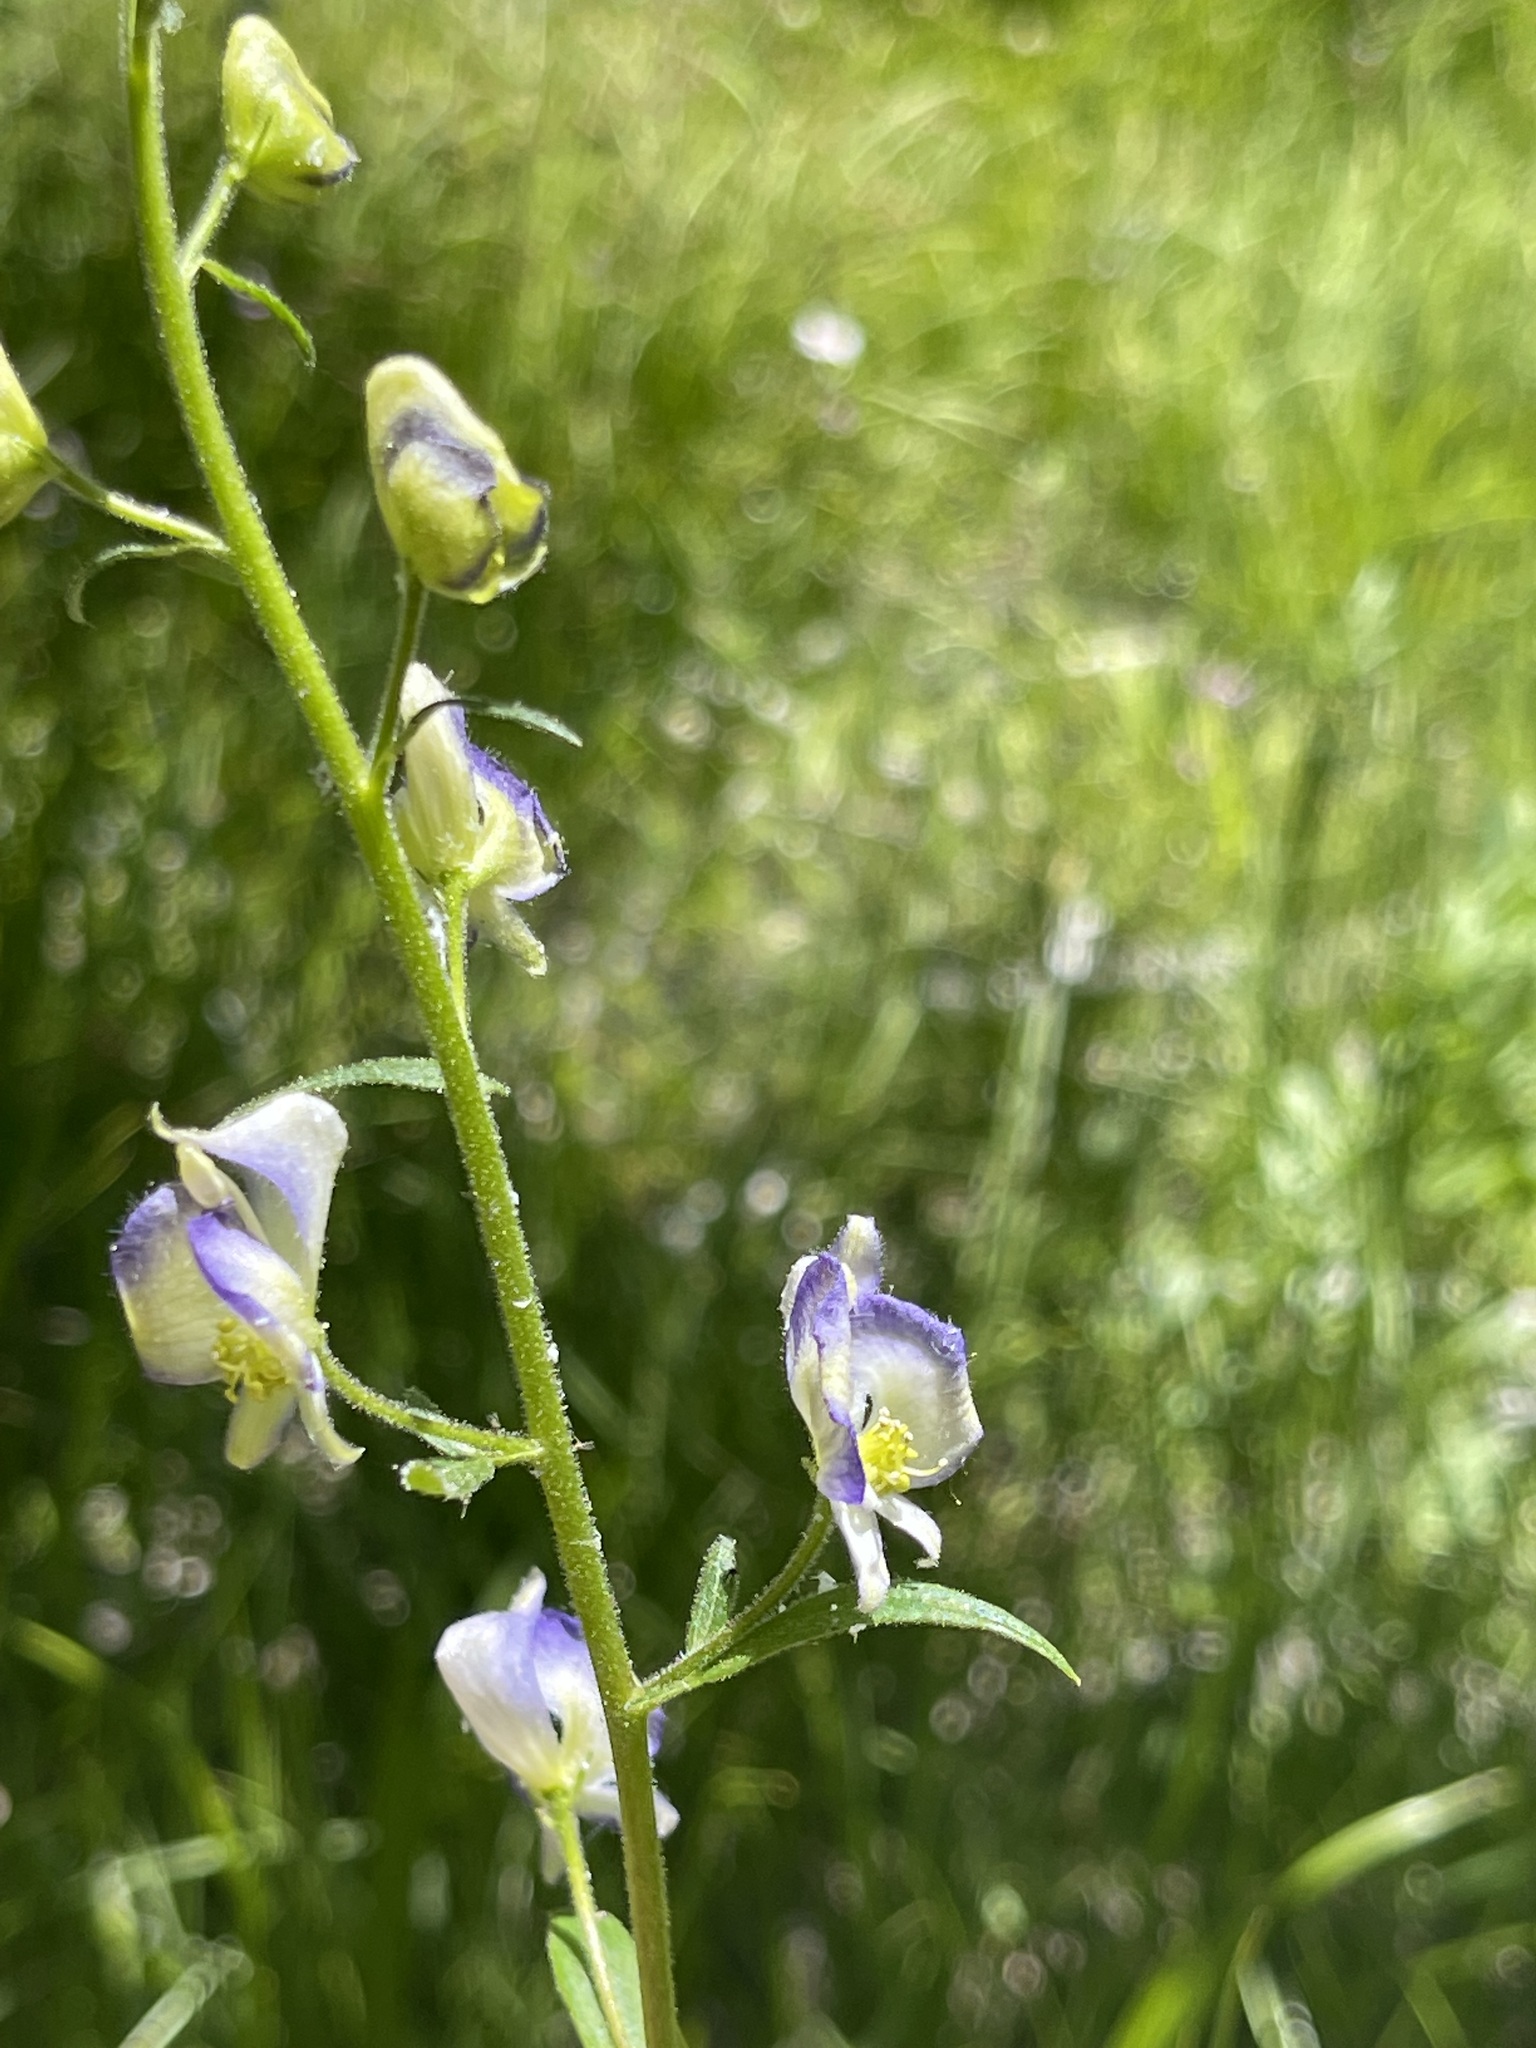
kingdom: Plantae
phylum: Tracheophyta
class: Magnoliopsida
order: Ranunculales
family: Ranunculaceae
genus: Aconitum
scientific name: Aconitum columbianum
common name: Columbia aconite
